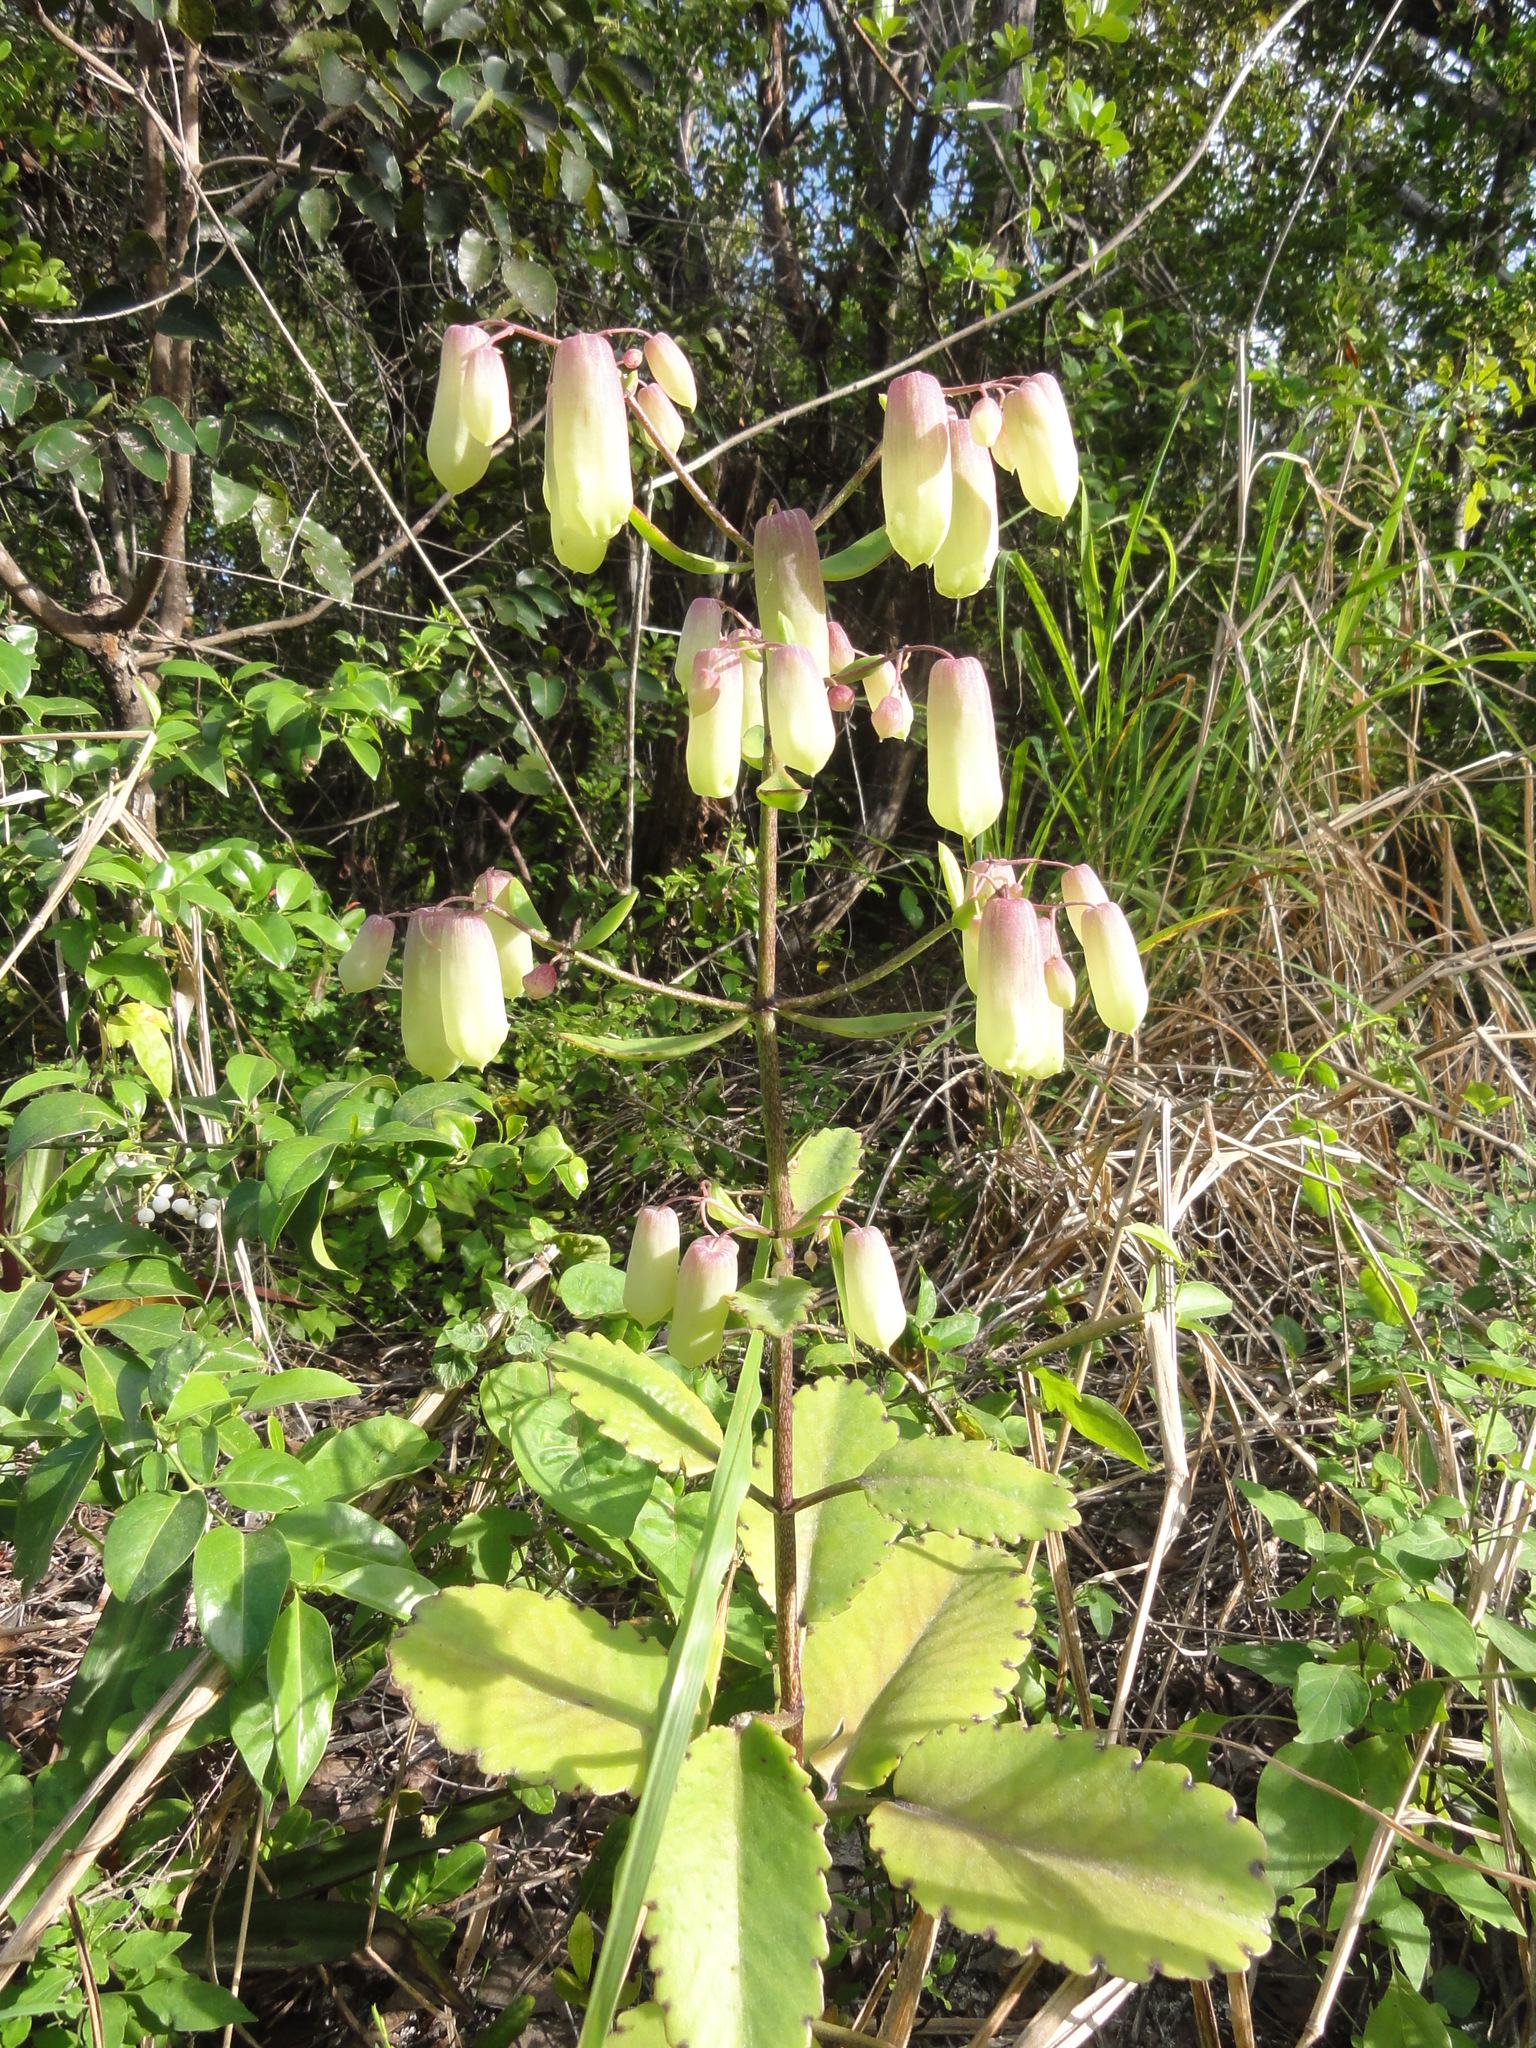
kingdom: Plantae
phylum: Tracheophyta
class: Magnoliopsida
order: Saxifragales
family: Crassulaceae
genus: Kalanchoe
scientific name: Kalanchoe pinnata
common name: Cathedral bells
